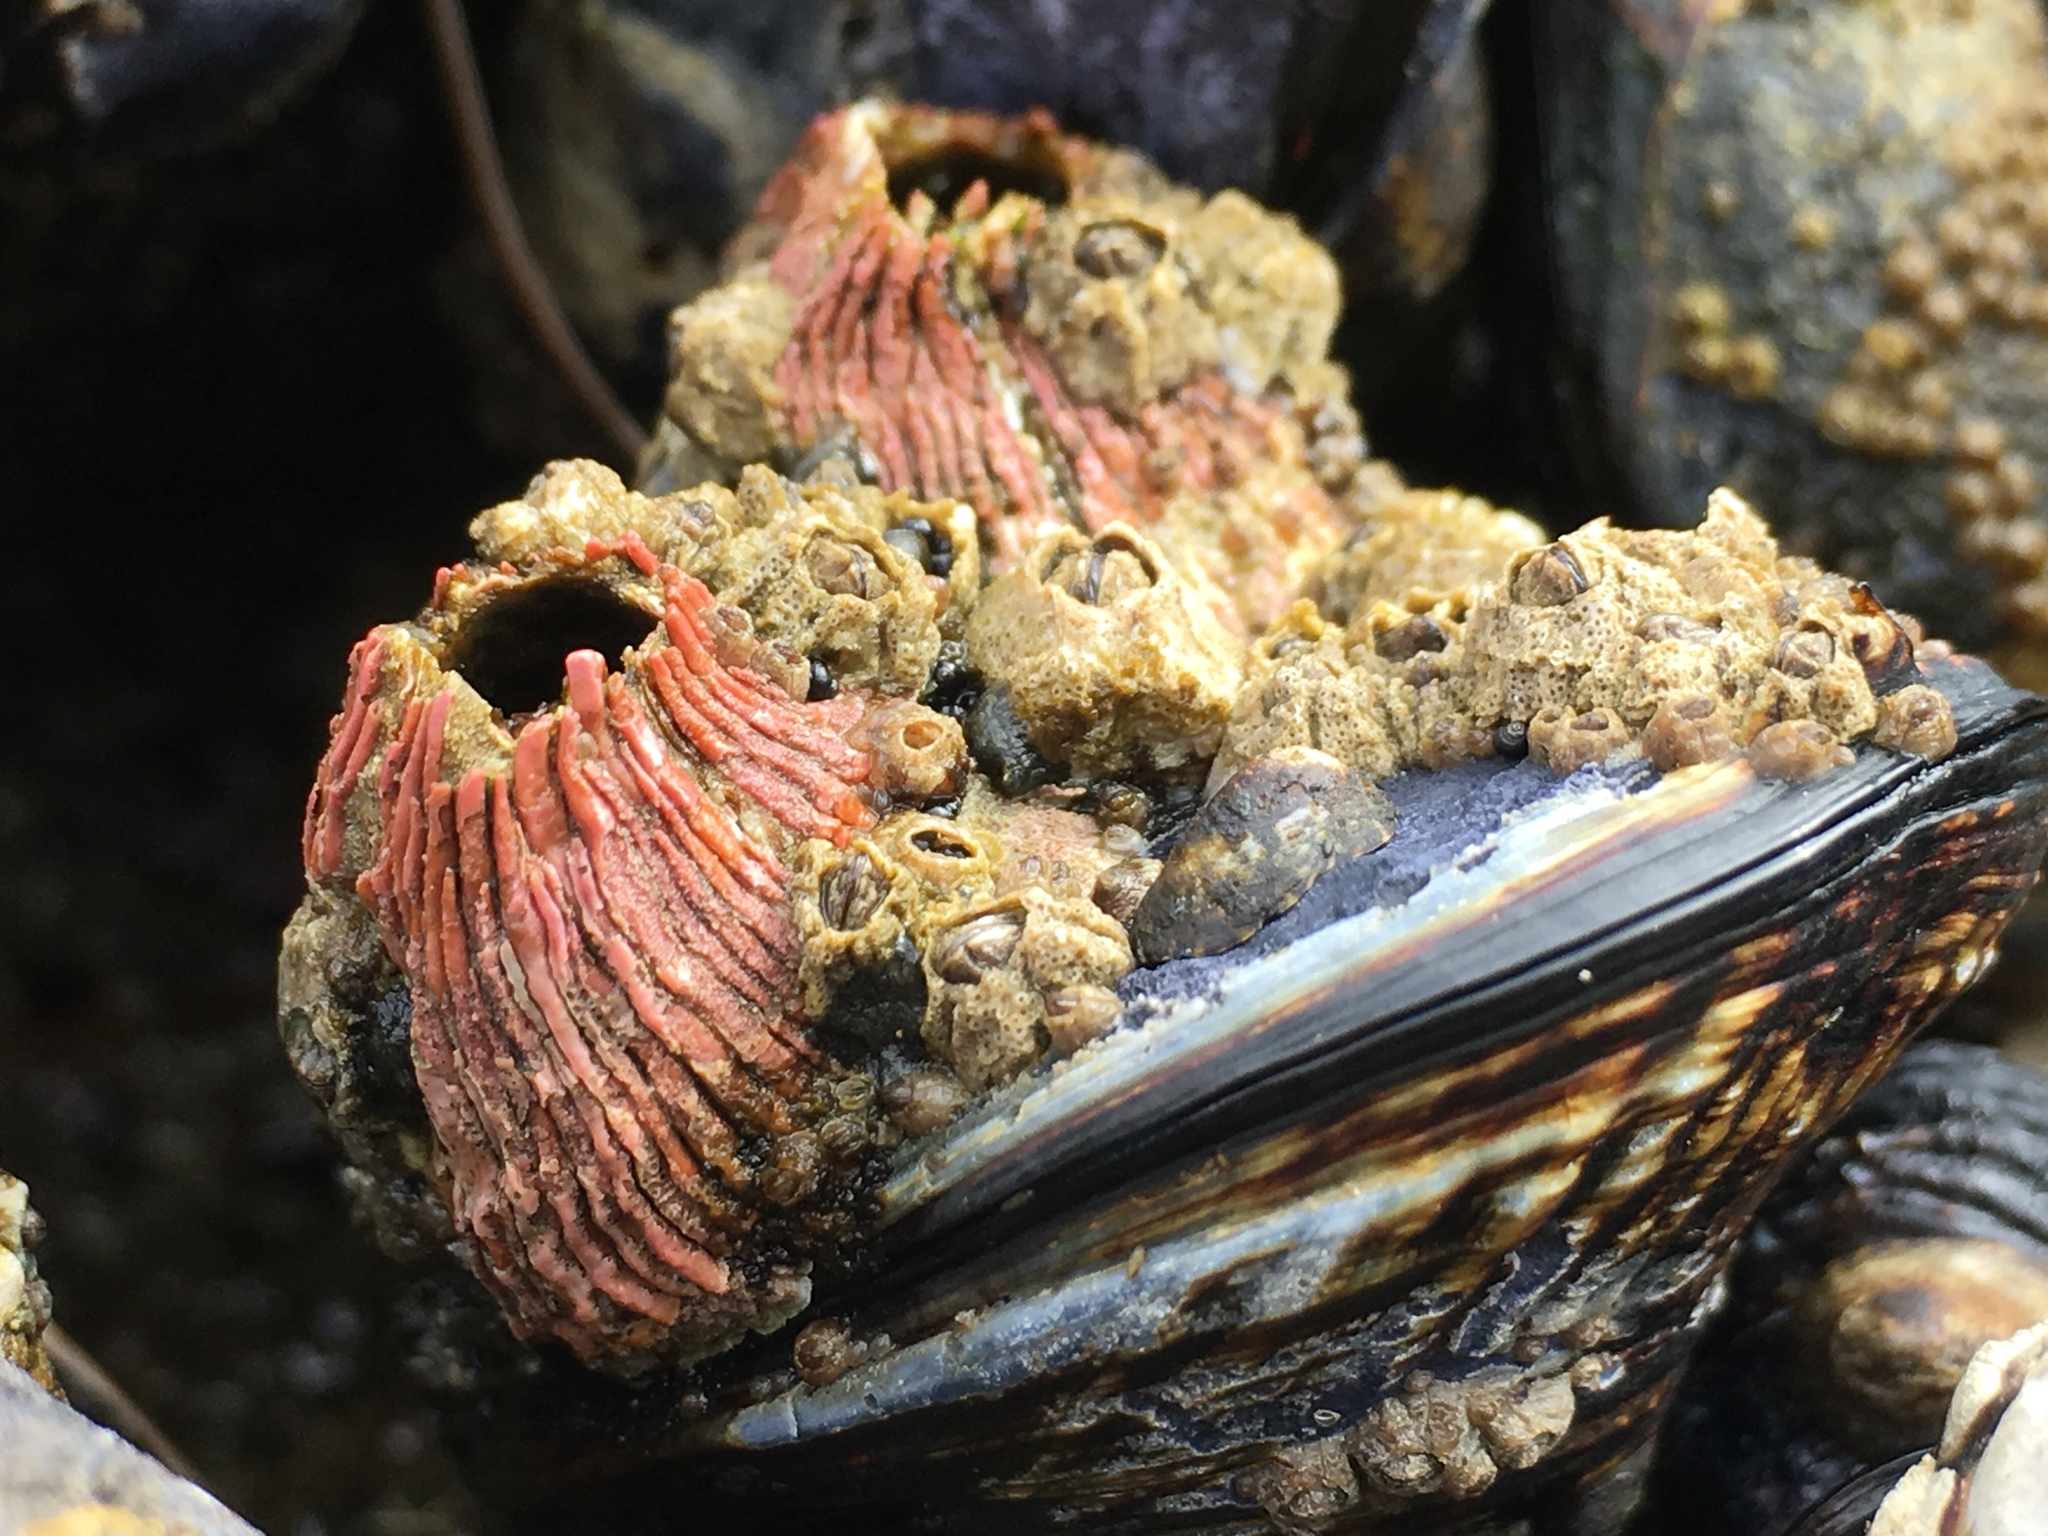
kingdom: Animalia
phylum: Arthropoda
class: Maxillopoda
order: Sessilia
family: Tetraclitidae
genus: Tetraclita
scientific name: Tetraclita rubescens
